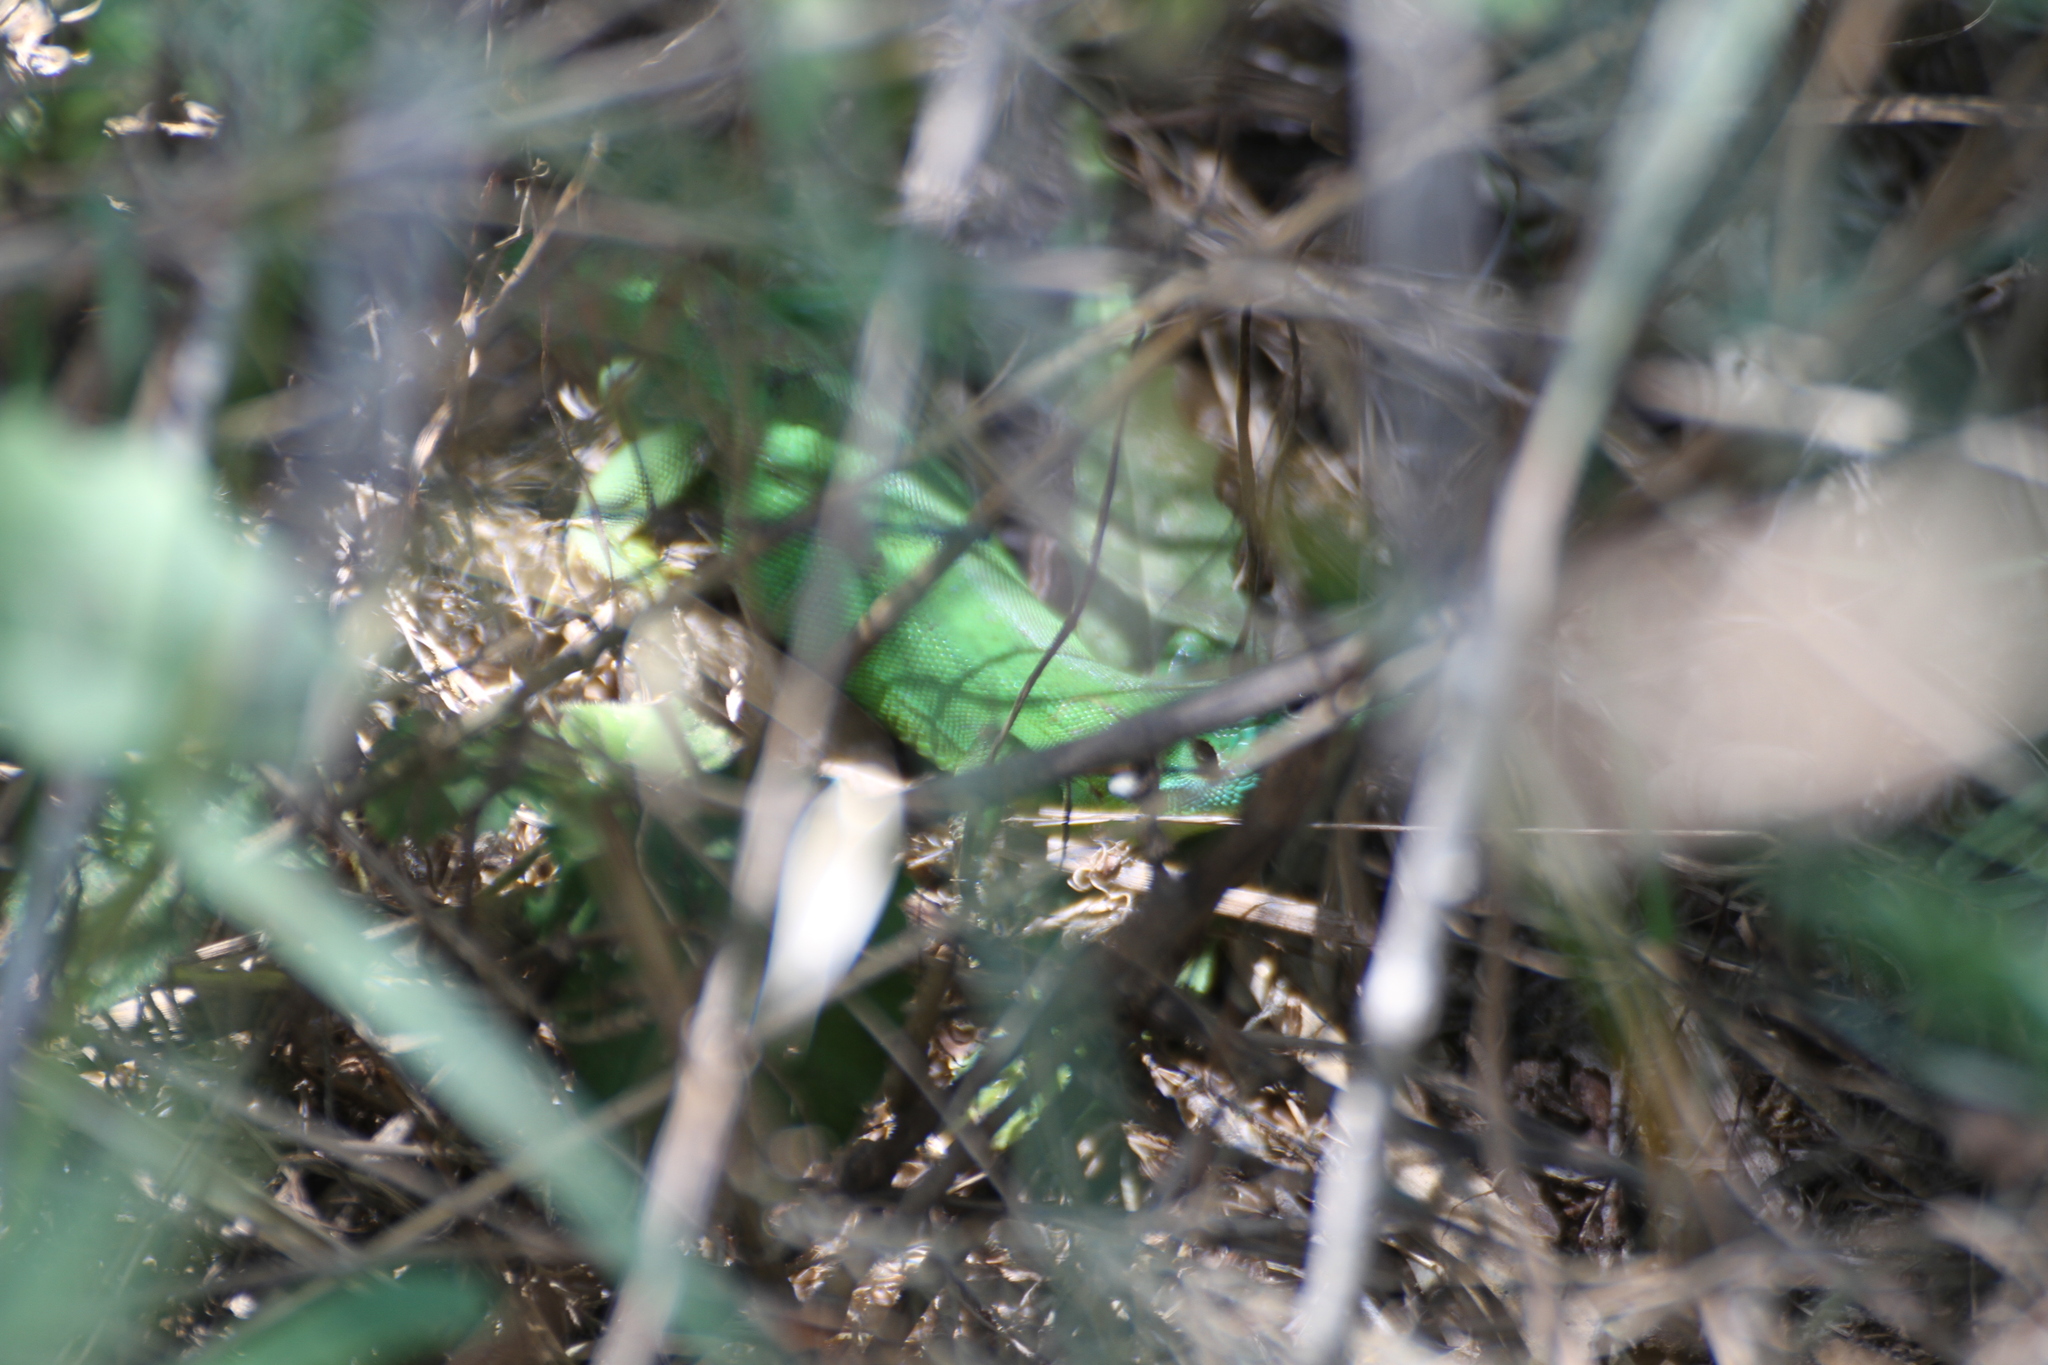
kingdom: Animalia
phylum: Chordata
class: Squamata
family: Lacertidae
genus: Lacerta
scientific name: Lacerta bilineata
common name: Western green lizard
